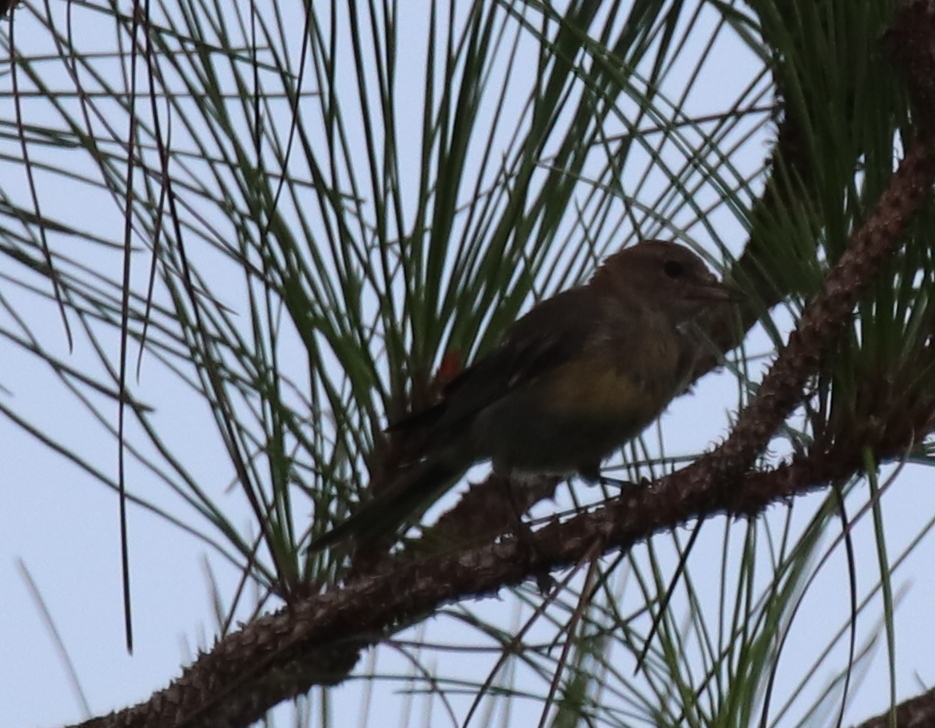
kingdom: Animalia
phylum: Chordata
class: Aves
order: Passeriformes
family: Parulidae
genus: Setophaga
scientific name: Setophaga pinus
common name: Pine warbler
